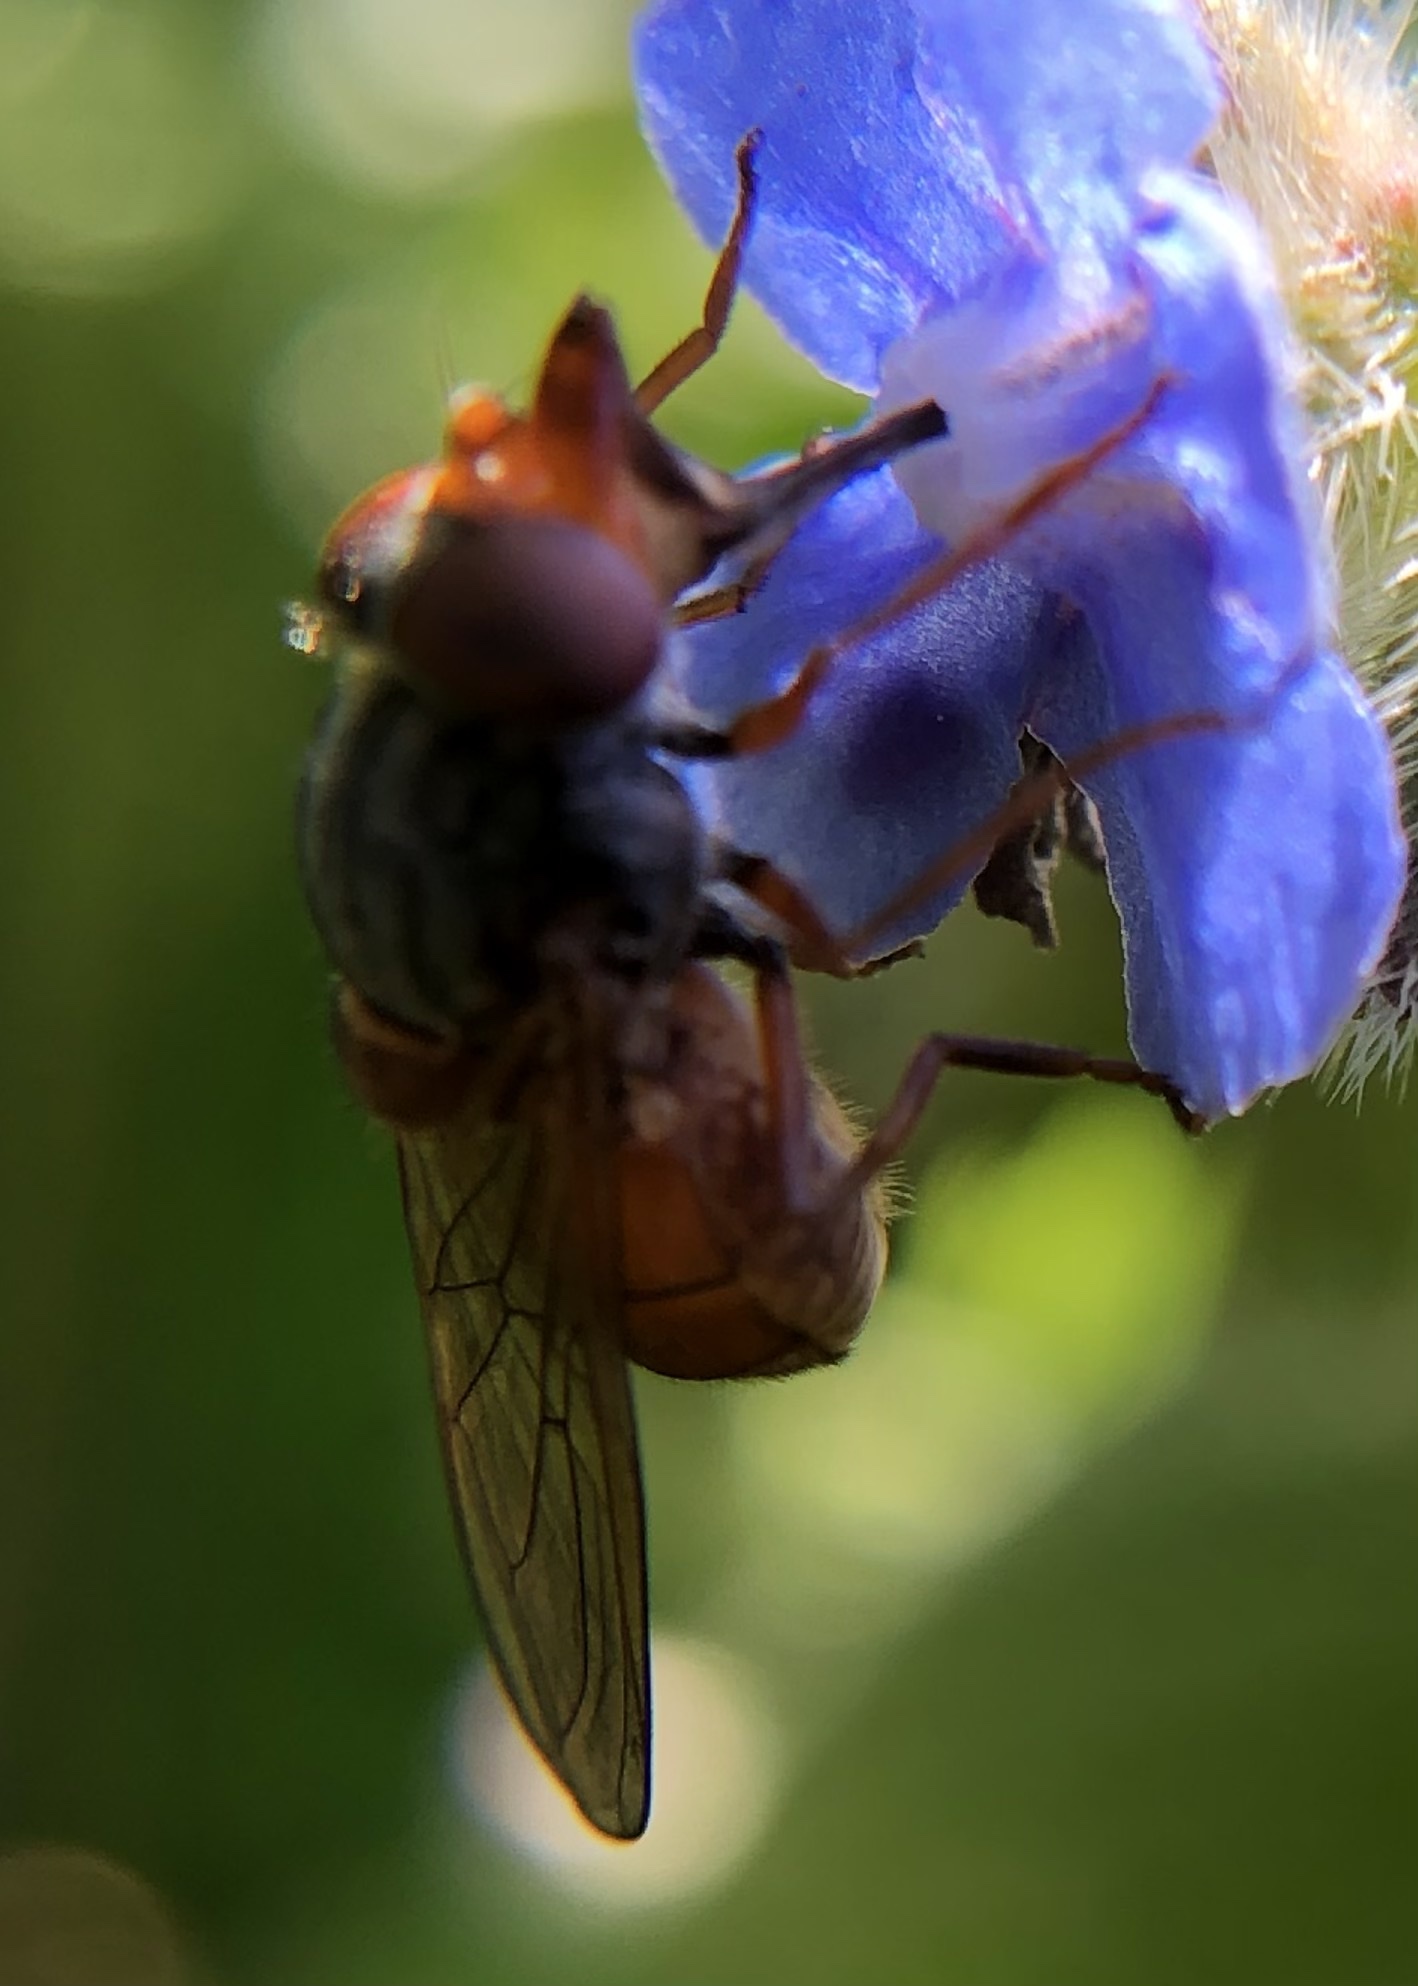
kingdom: Animalia
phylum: Arthropoda
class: Insecta
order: Diptera
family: Syrphidae
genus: Rhingia
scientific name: Rhingia campestris
